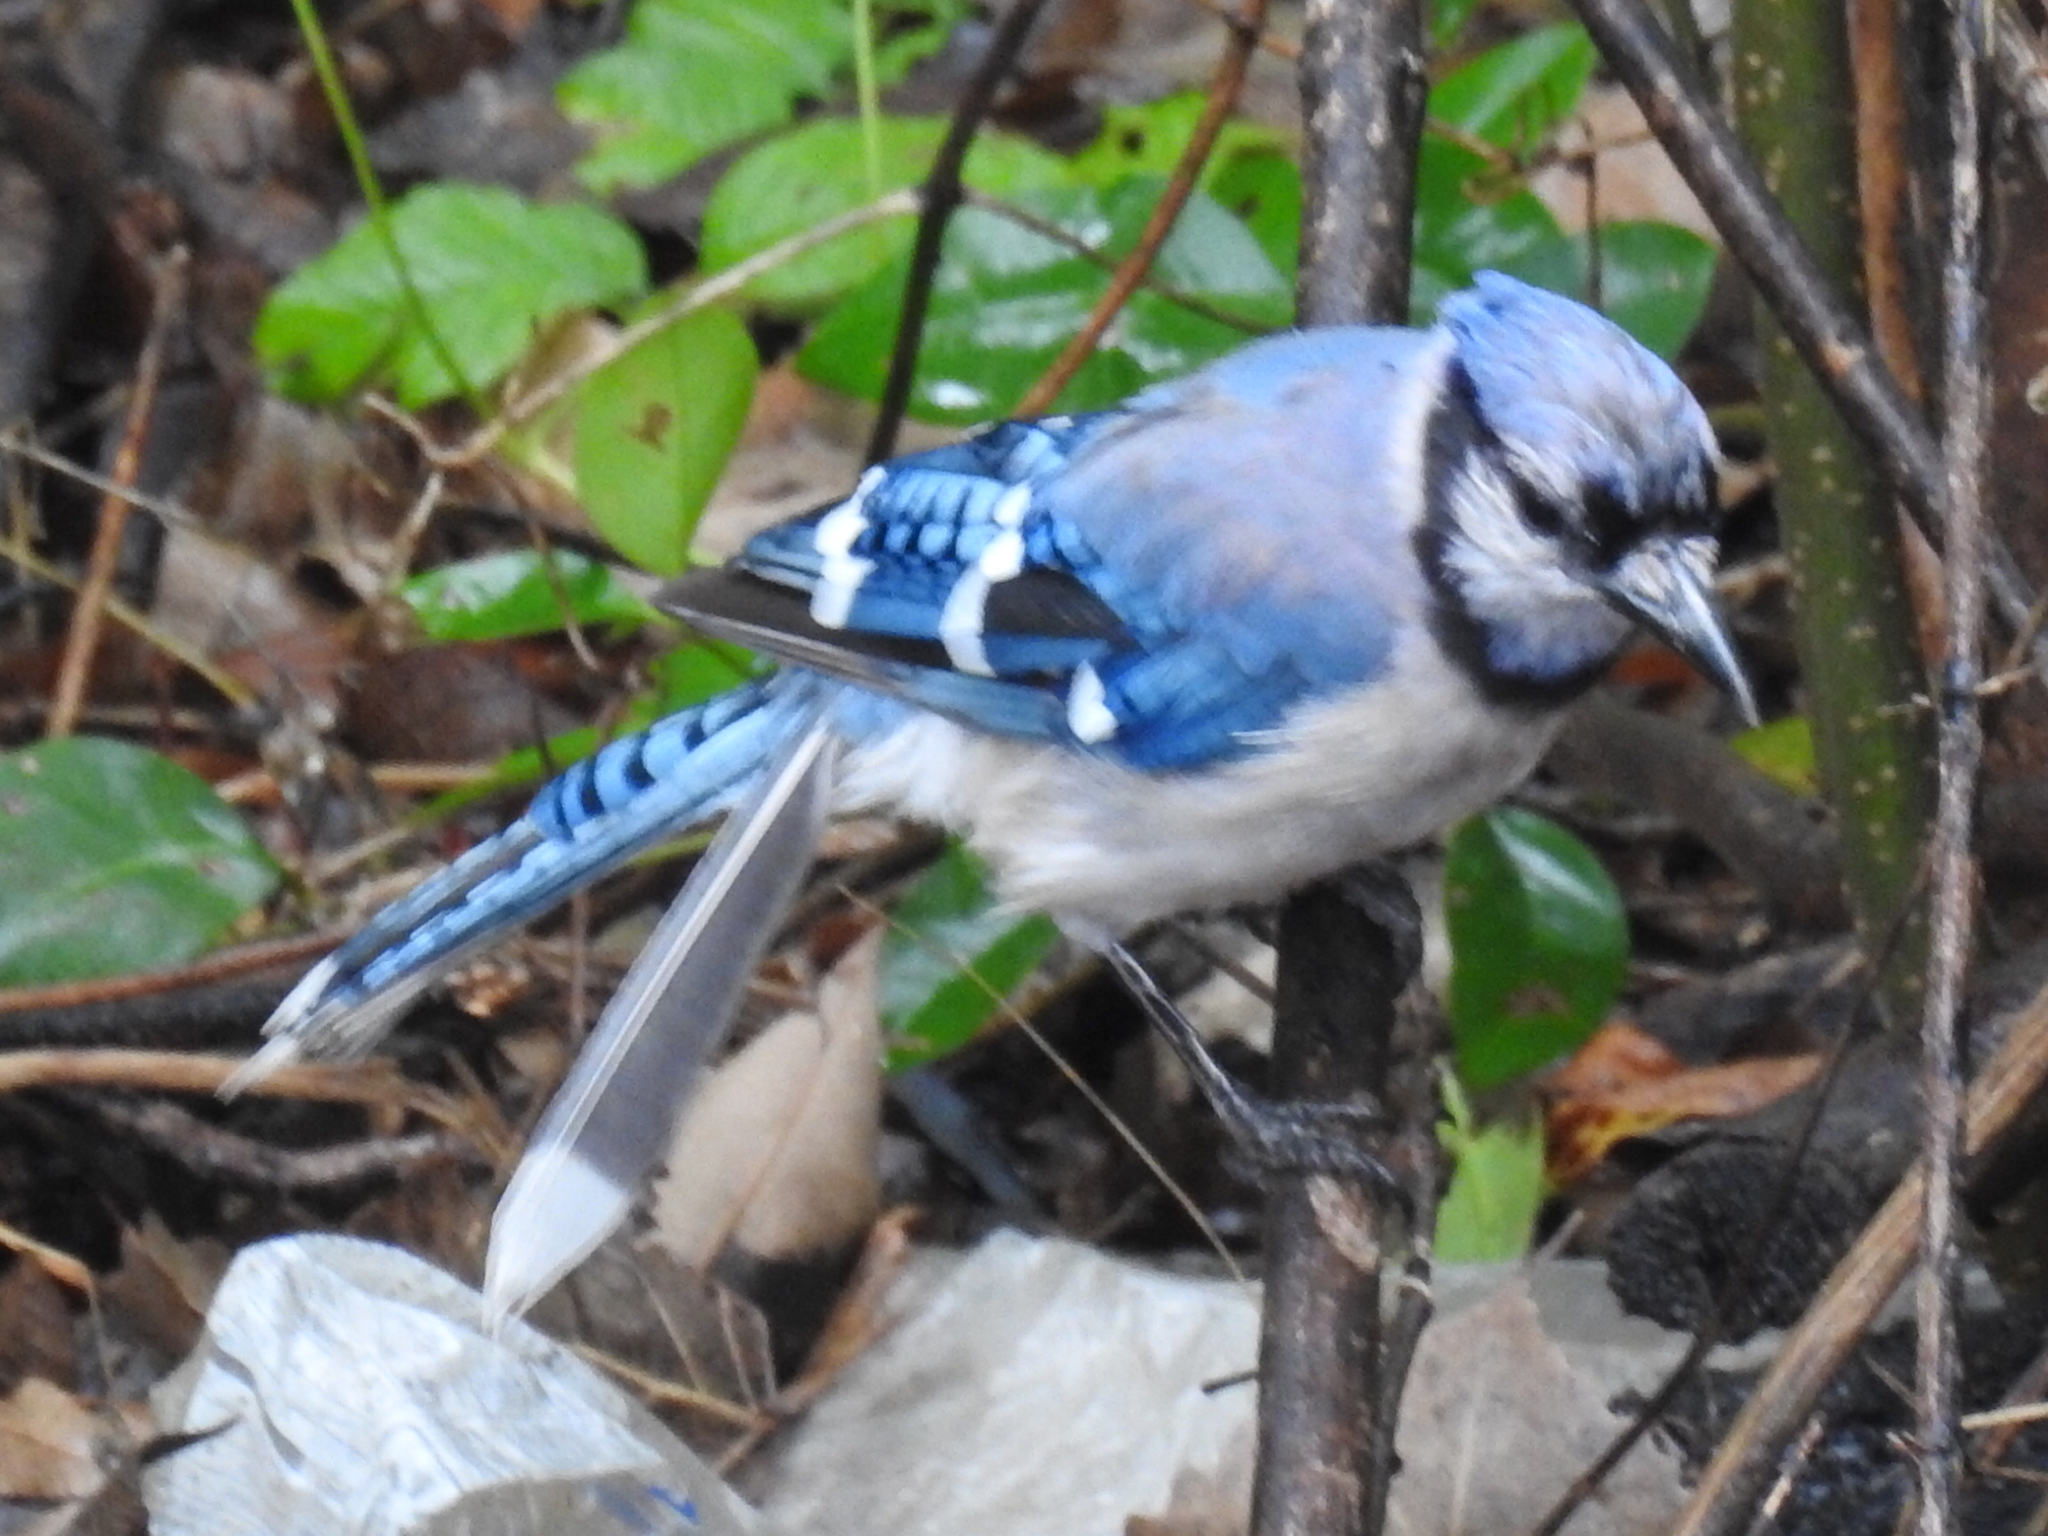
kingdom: Animalia
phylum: Chordata
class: Aves
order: Passeriformes
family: Corvidae
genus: Cyanocitta
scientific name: Cyanocitta cristata
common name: Blue jay
